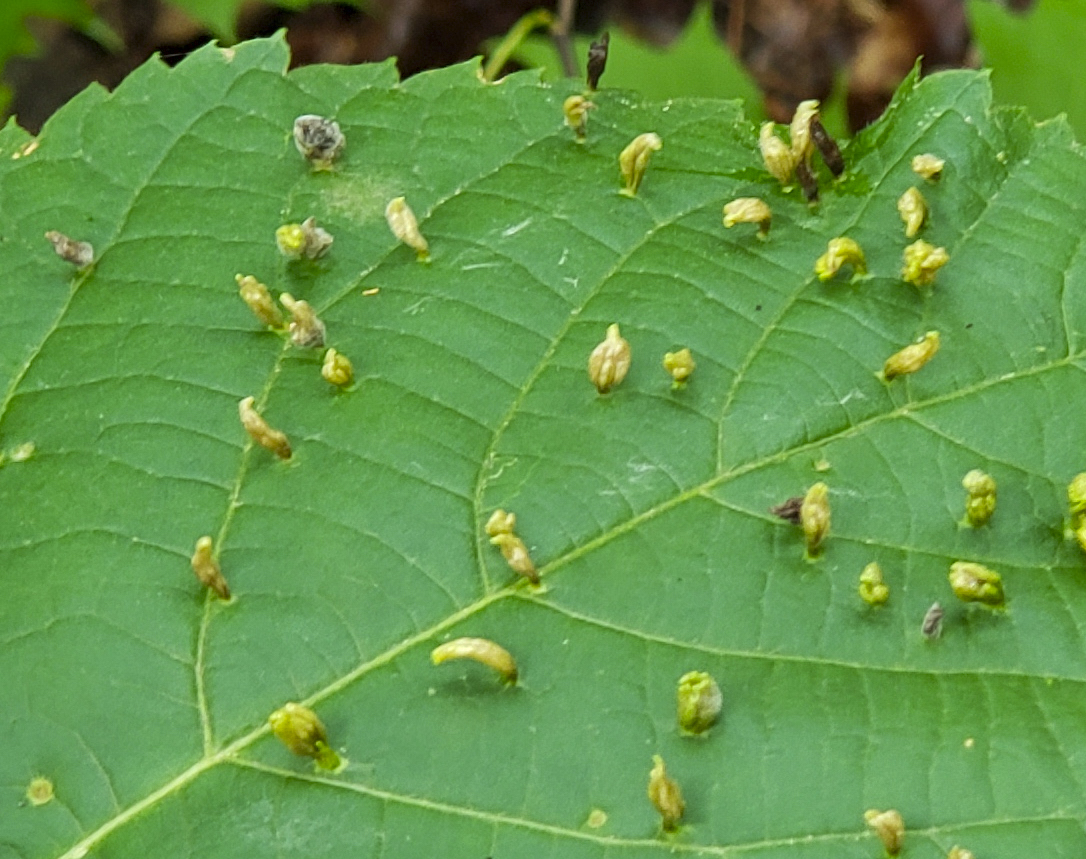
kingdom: Animalia
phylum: Arthropoda
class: Arachnida
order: Trombidiformes
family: Eriophyidae
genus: Eriophyes
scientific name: Eriophyes tiliae
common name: Red nail gall mite
